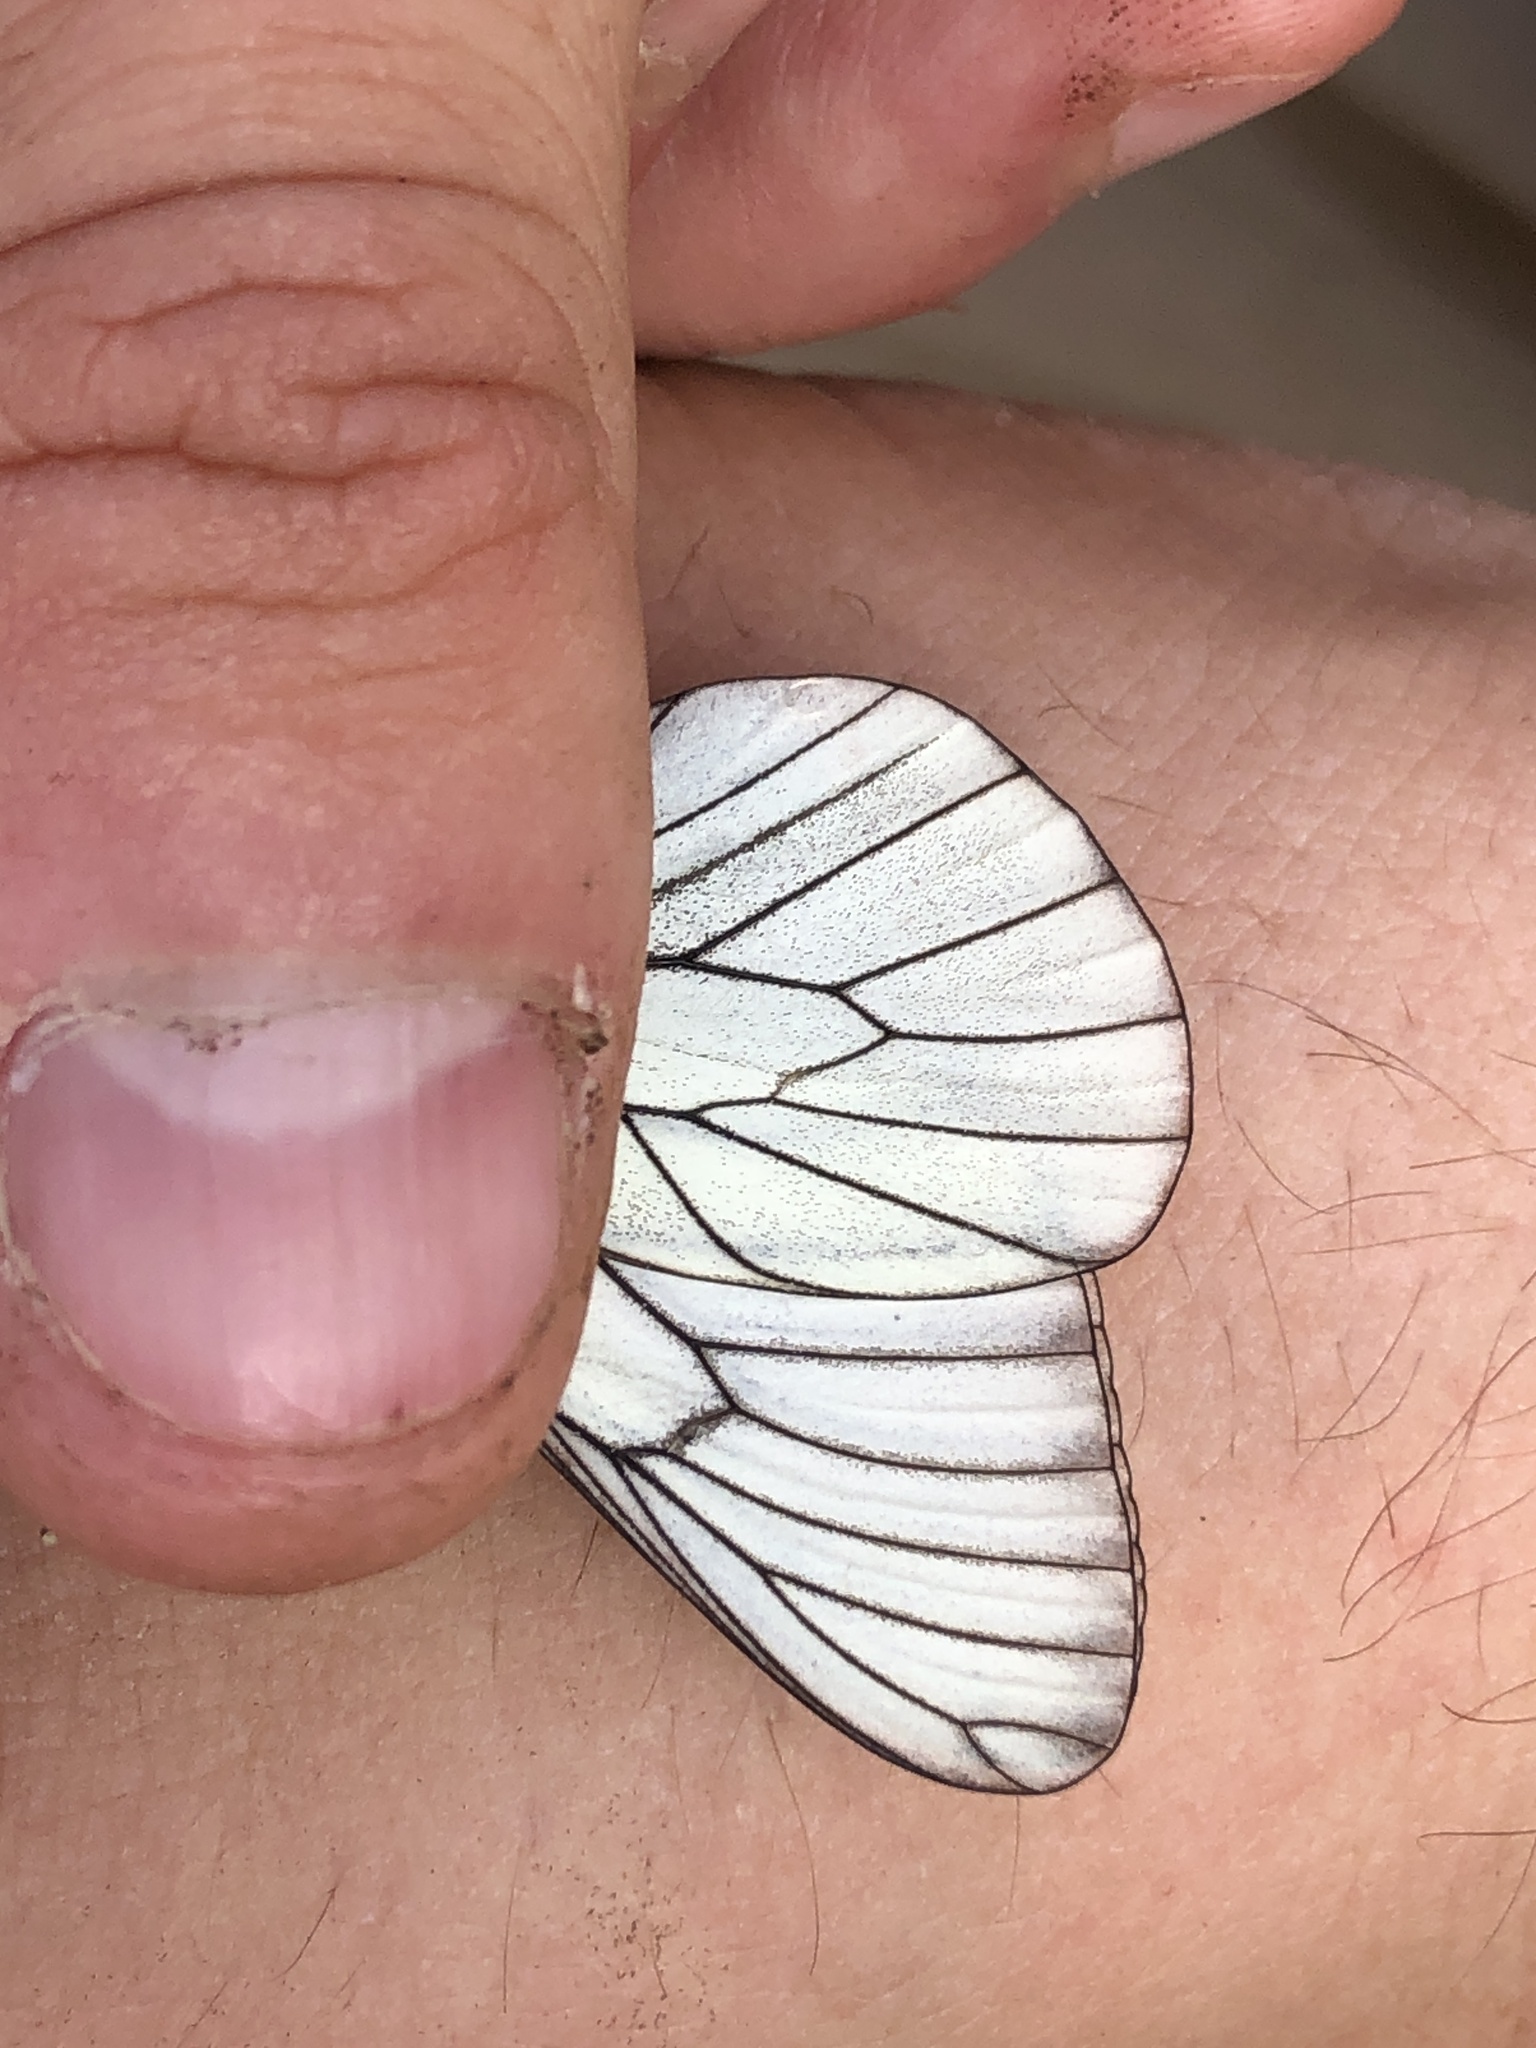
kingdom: Animalia
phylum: Arthropoda
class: Insecta
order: Lepidoptera
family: Pieridae
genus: Aporia
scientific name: Aporia crataegi
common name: Black-veined white
